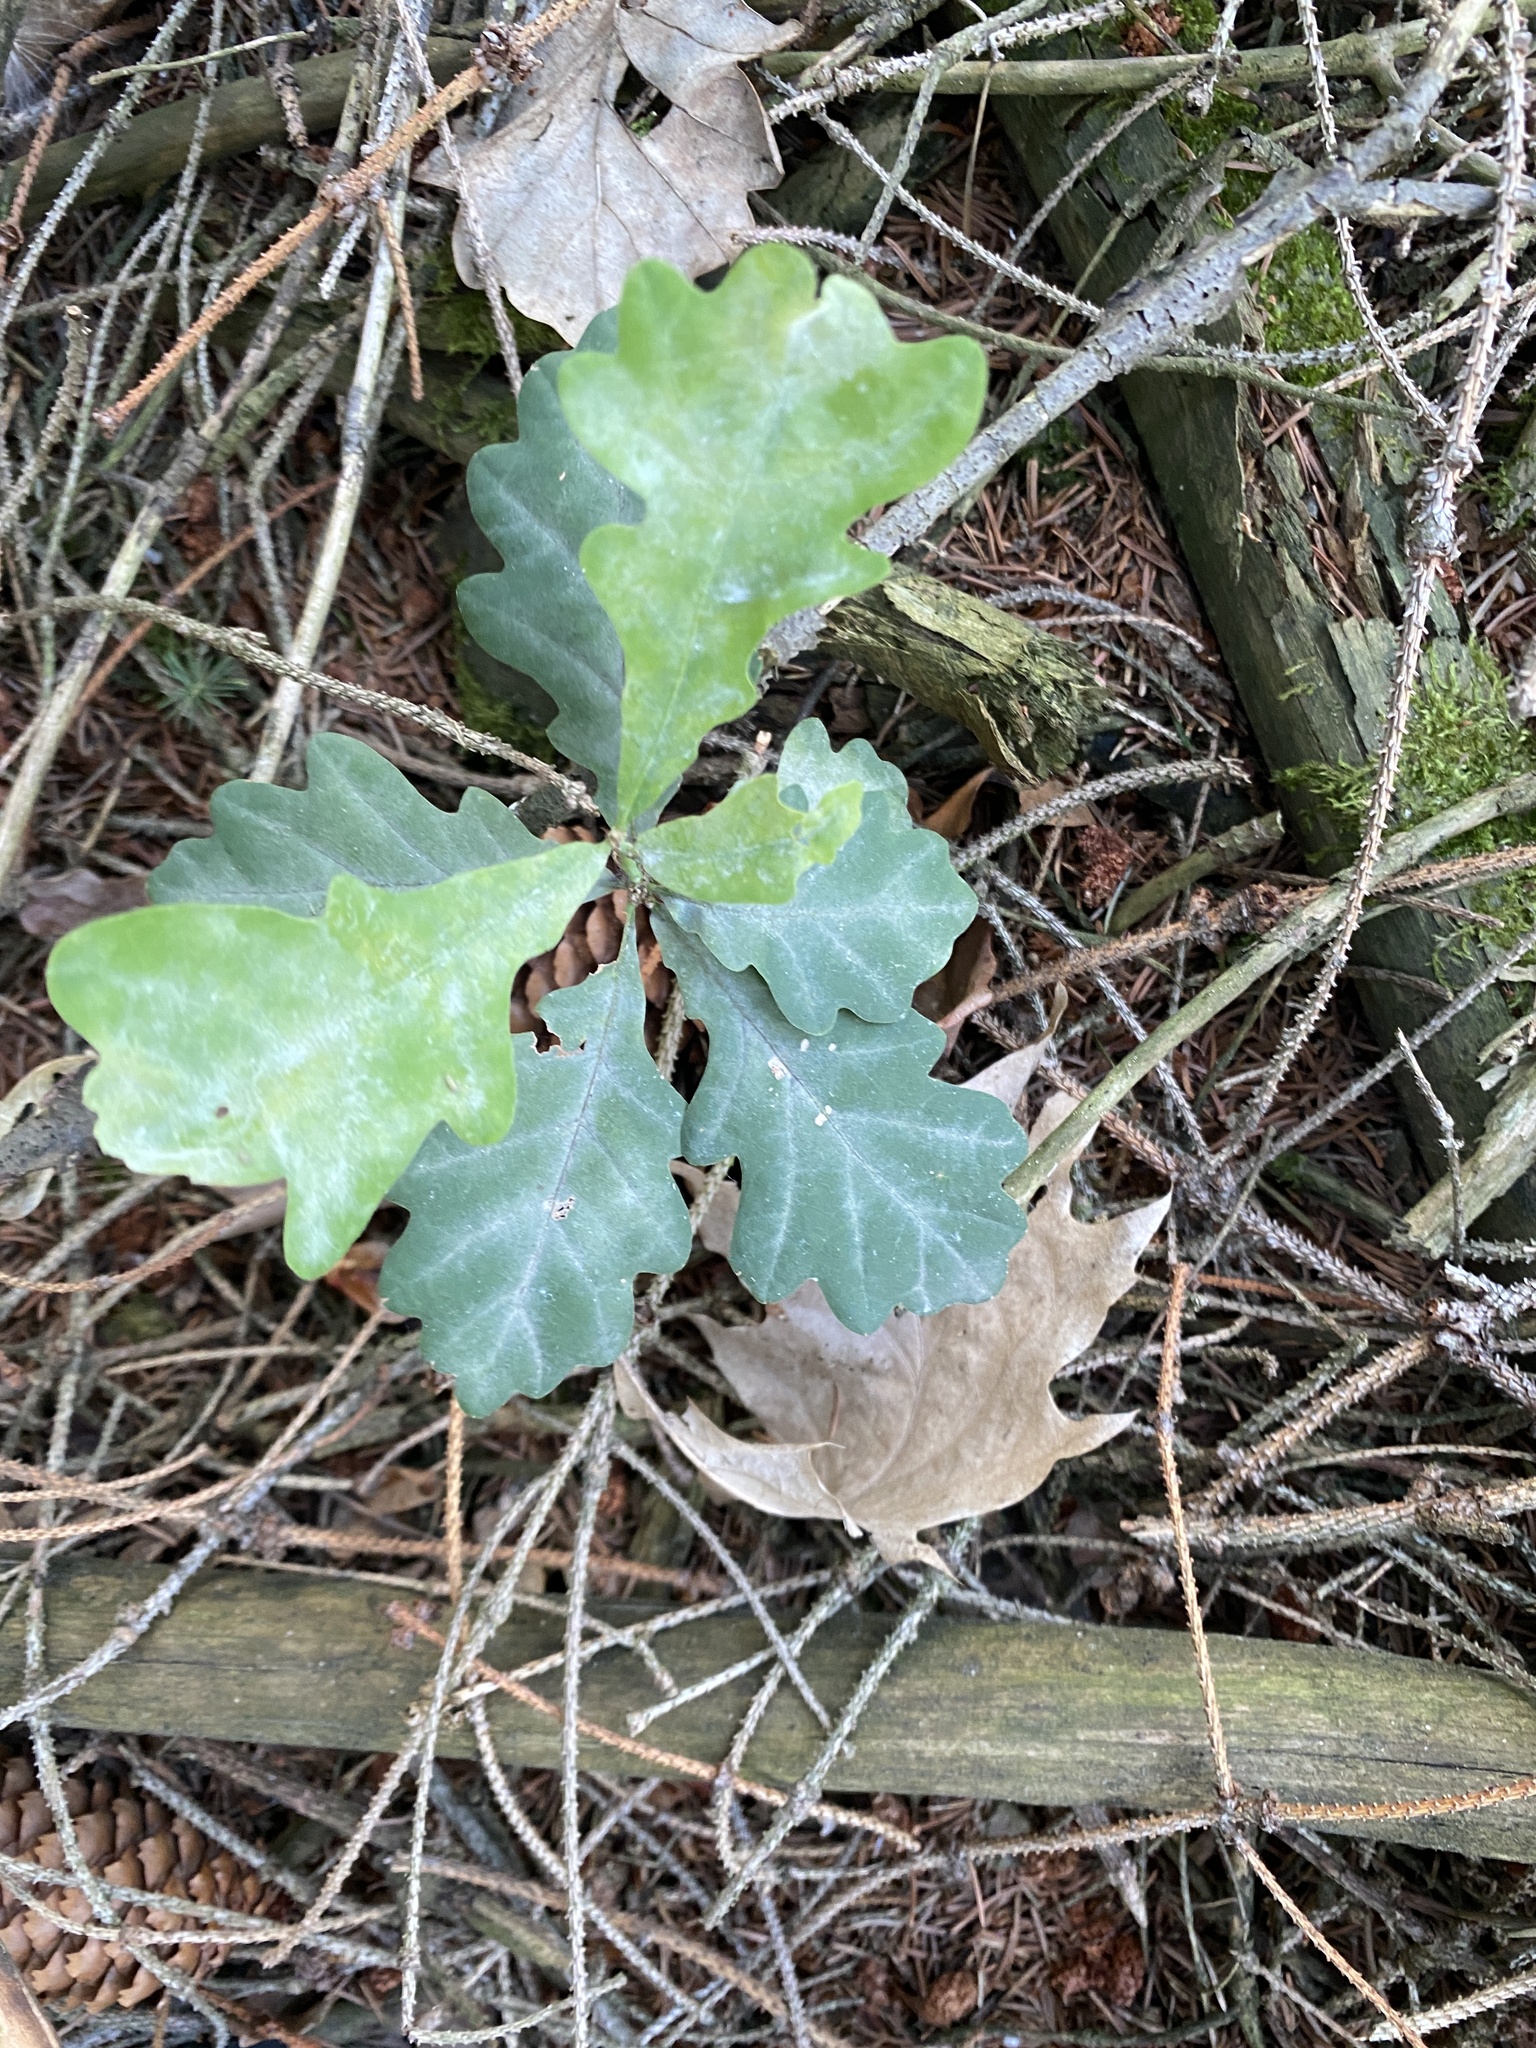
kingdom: Plantae
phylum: Tracheophyta
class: Magnoliopsida
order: Fagales
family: Fagaceae
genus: Quercus
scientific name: Quercus robur
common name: Pedunculate oak
